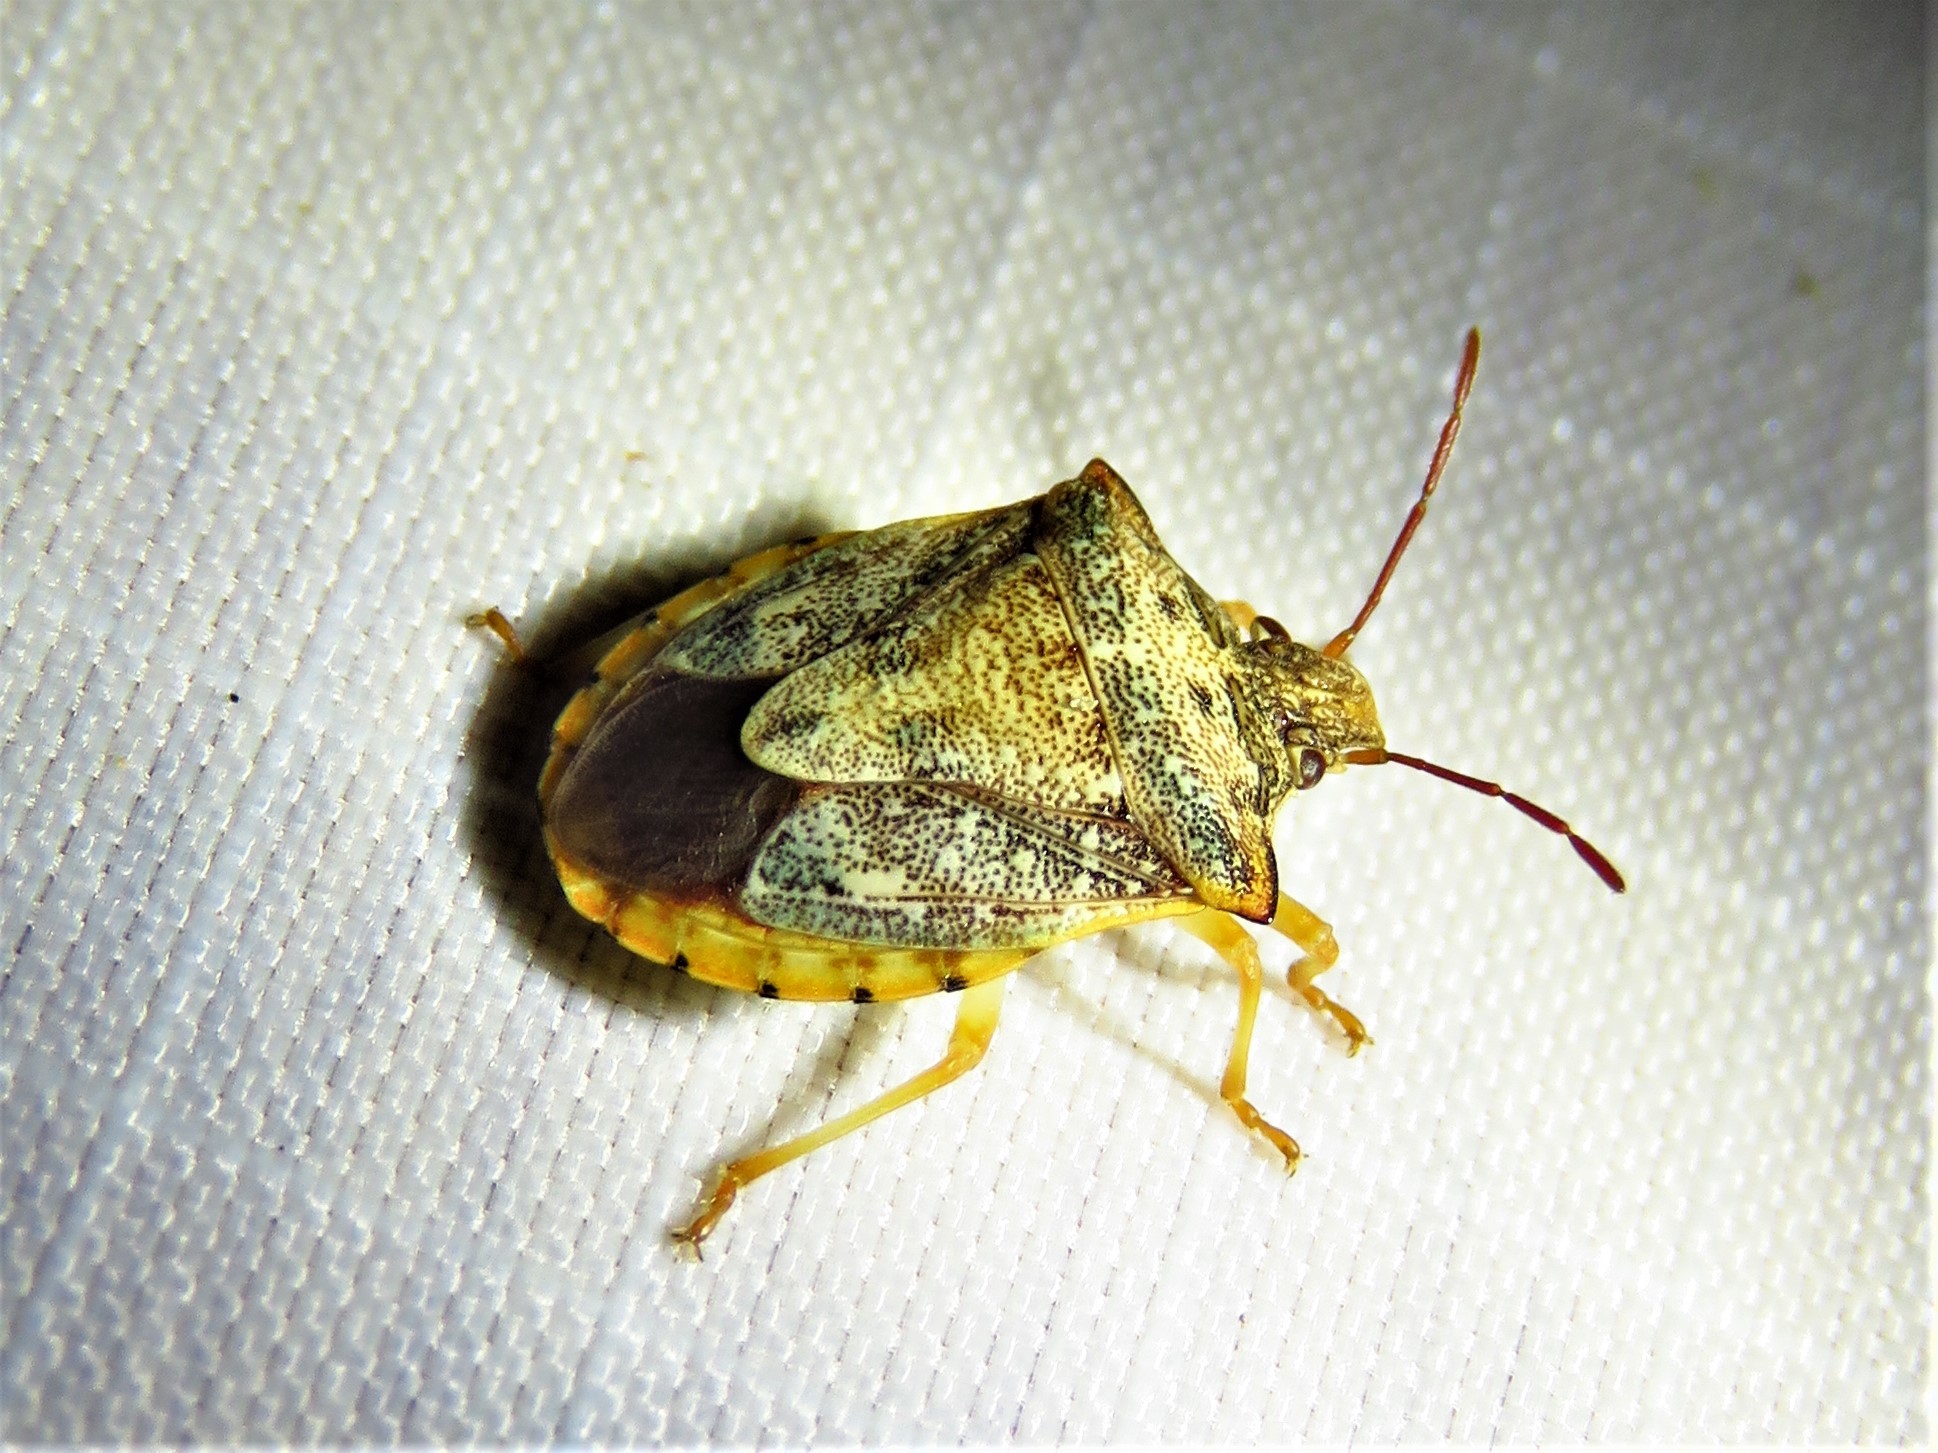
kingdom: Animalia
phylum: Arthropoda
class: Insecta
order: Hemiptera
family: Pentatomidae
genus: Dendrocoris
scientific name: Dendrocoris humeralis
